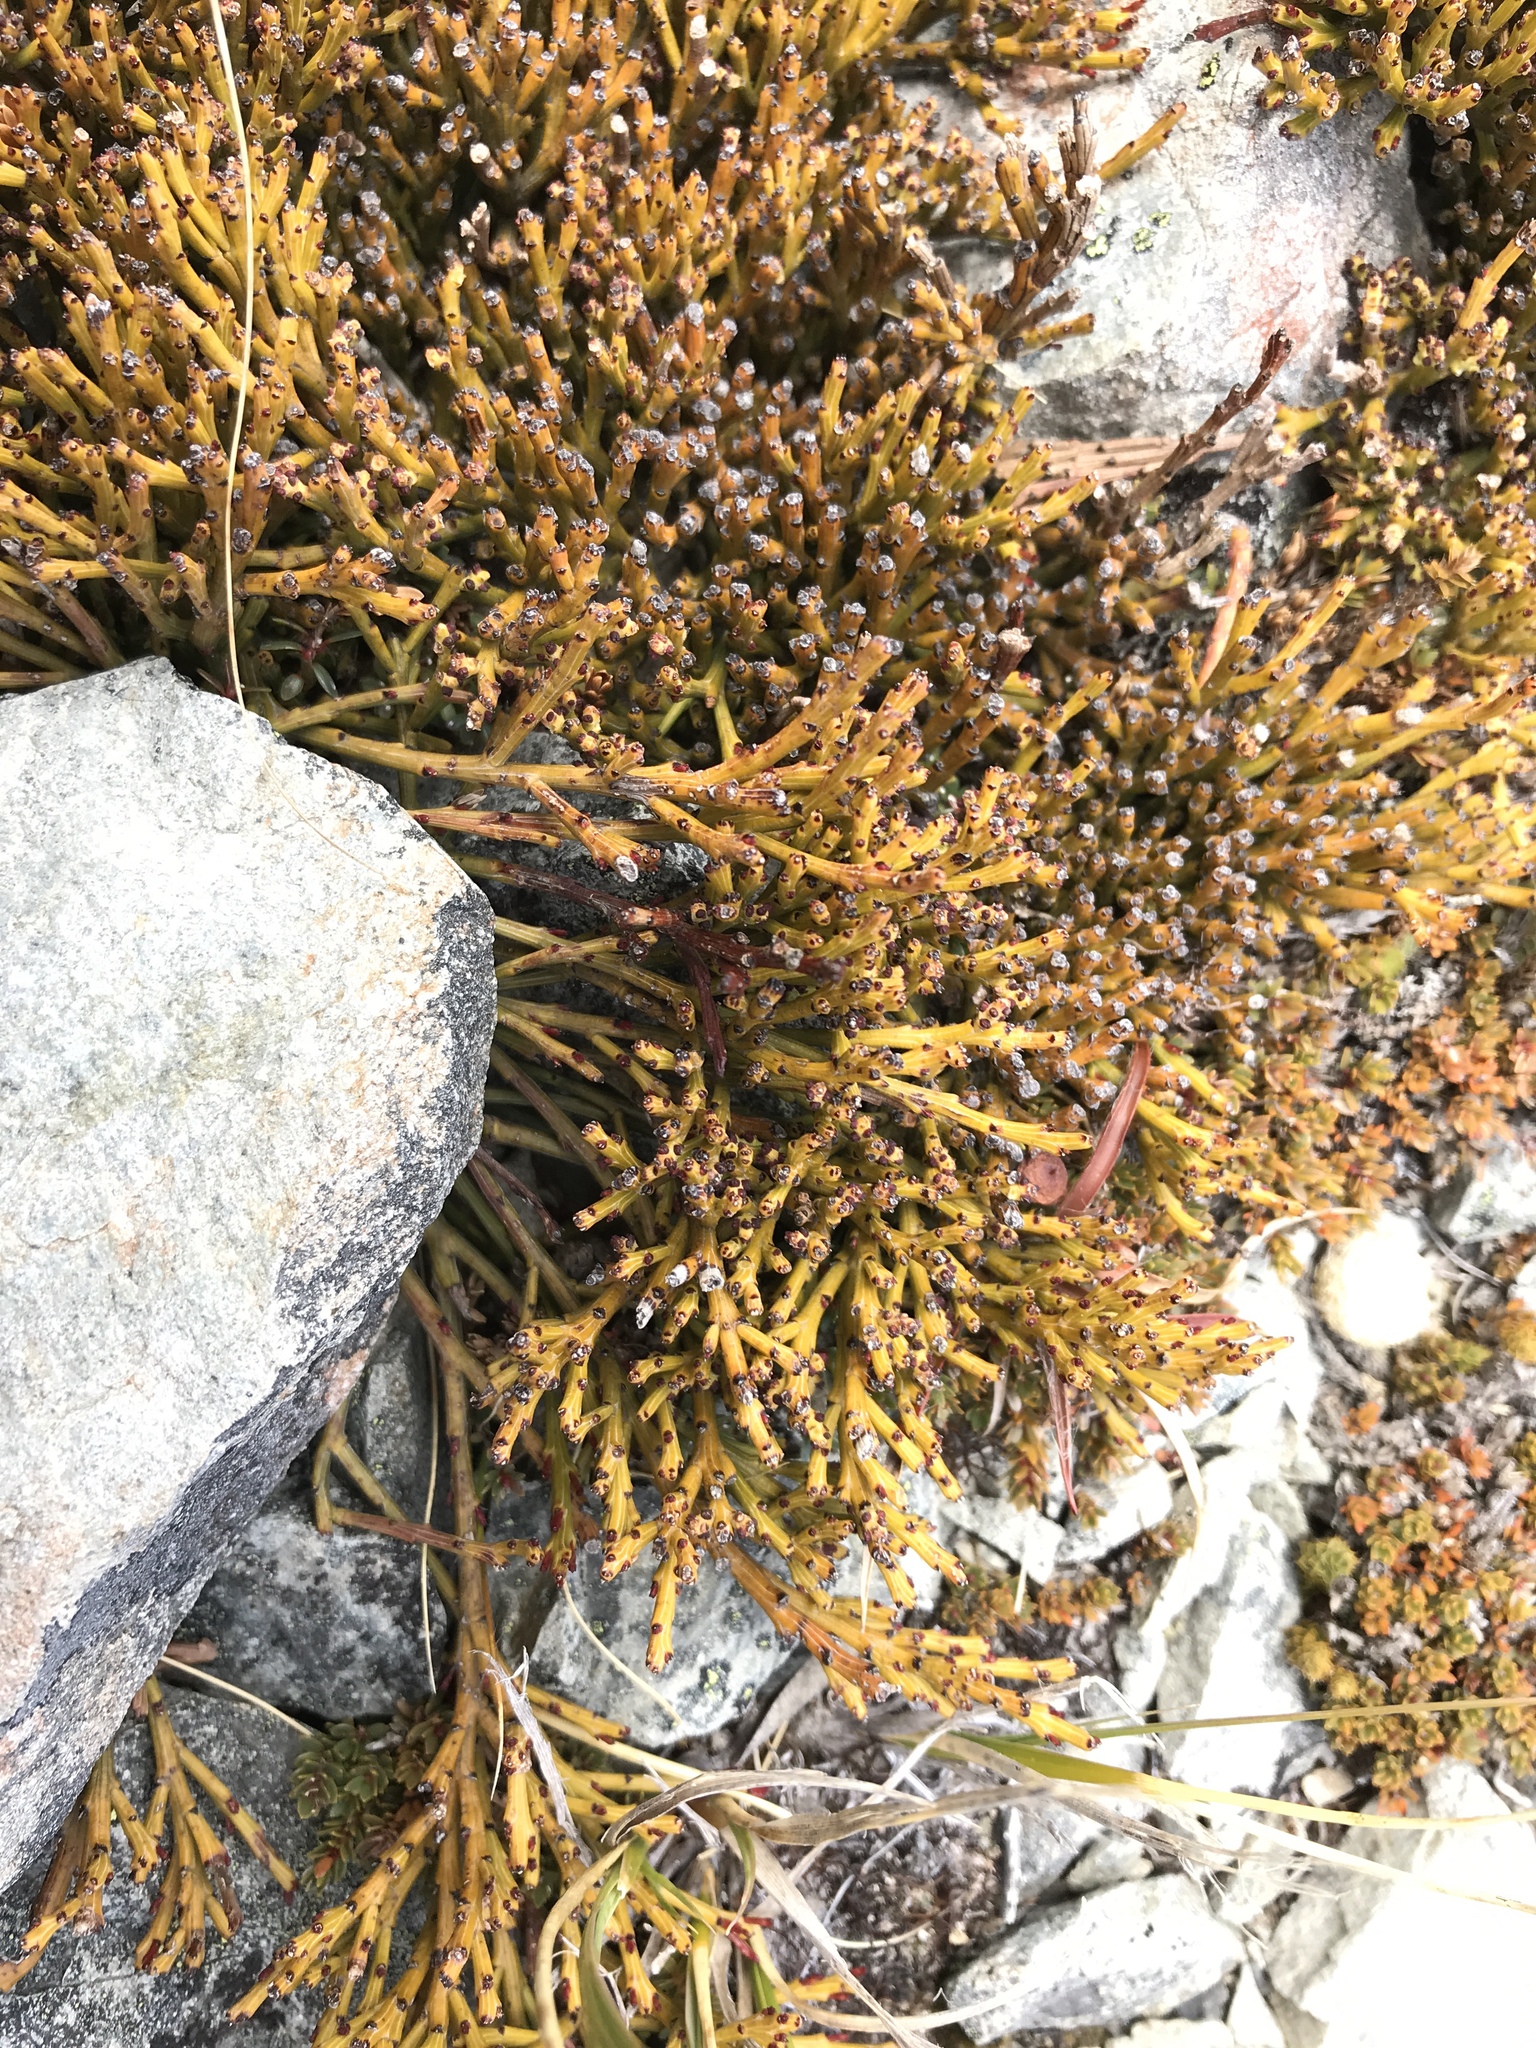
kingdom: Plantae
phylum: Tracheophyta
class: Magnoliopsida
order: Santalales
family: Santalaceae
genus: Exocarpos
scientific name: Exocarpos bidwillii
